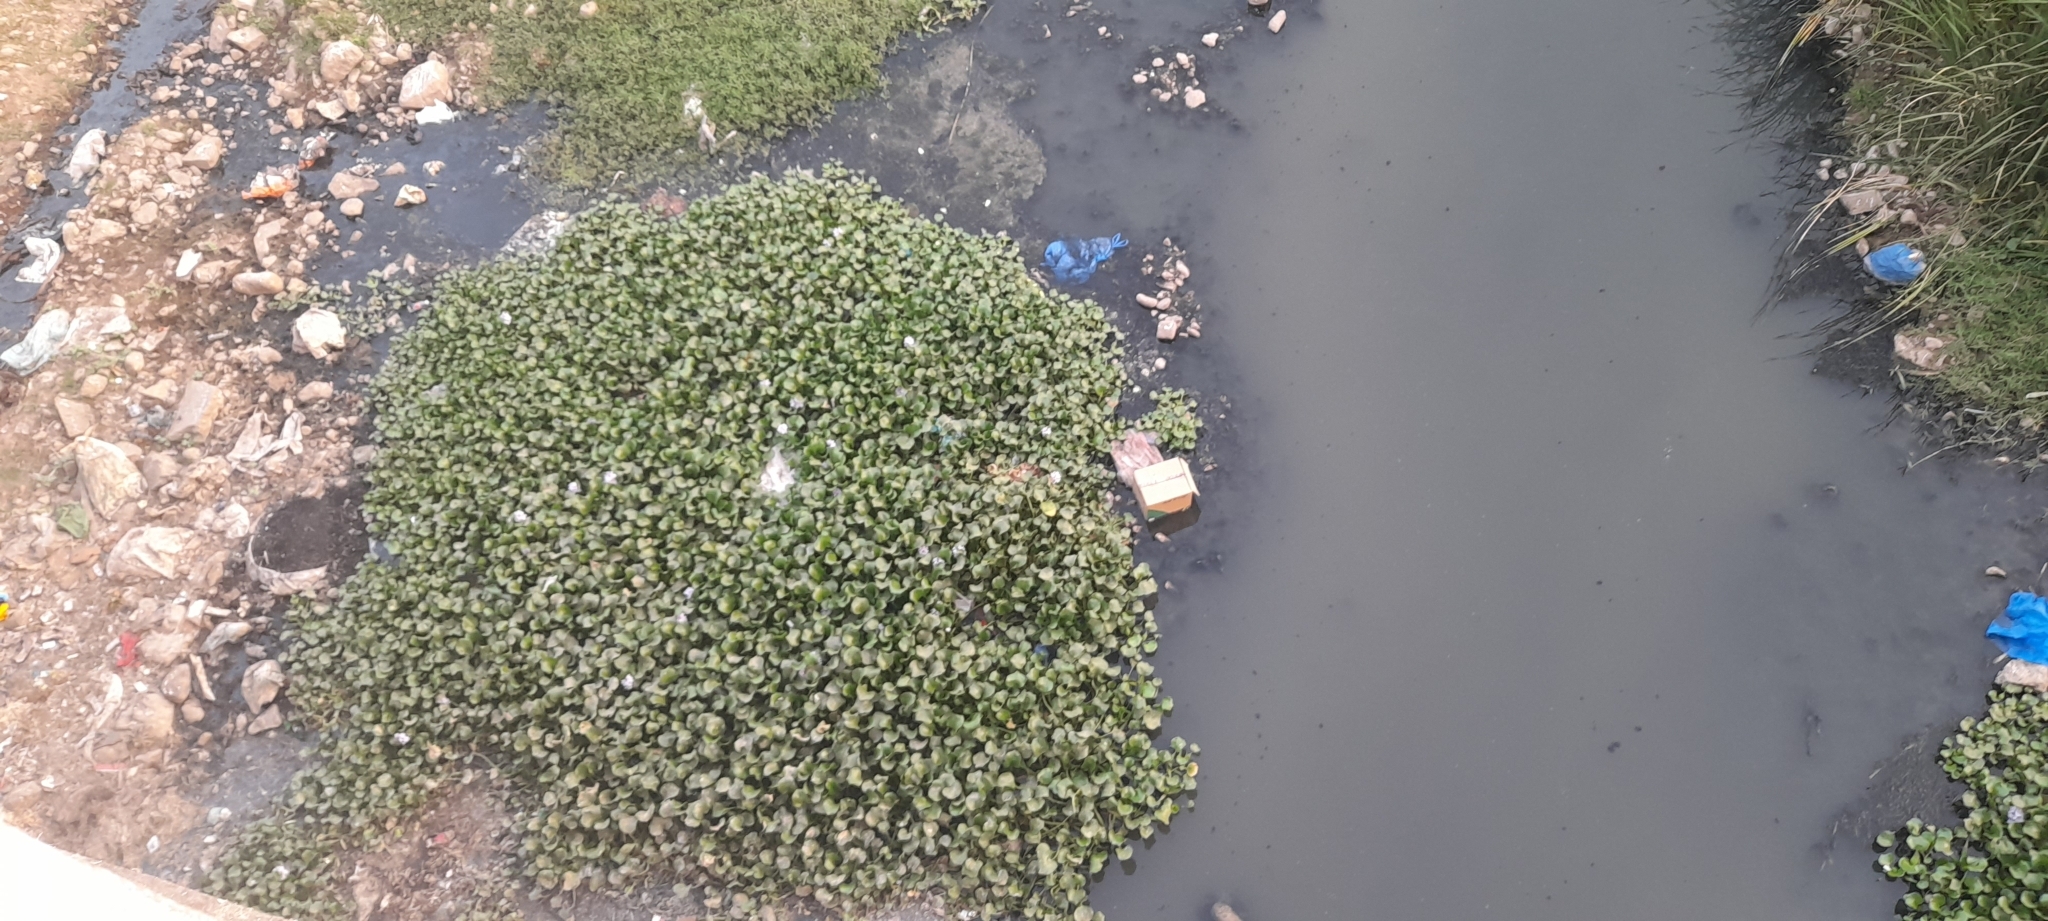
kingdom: Plantae
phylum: Tracheophyta
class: Liliopsida
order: Commelinales
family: Pontederiaceae
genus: Pontederia
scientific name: Pontederia crassipes
